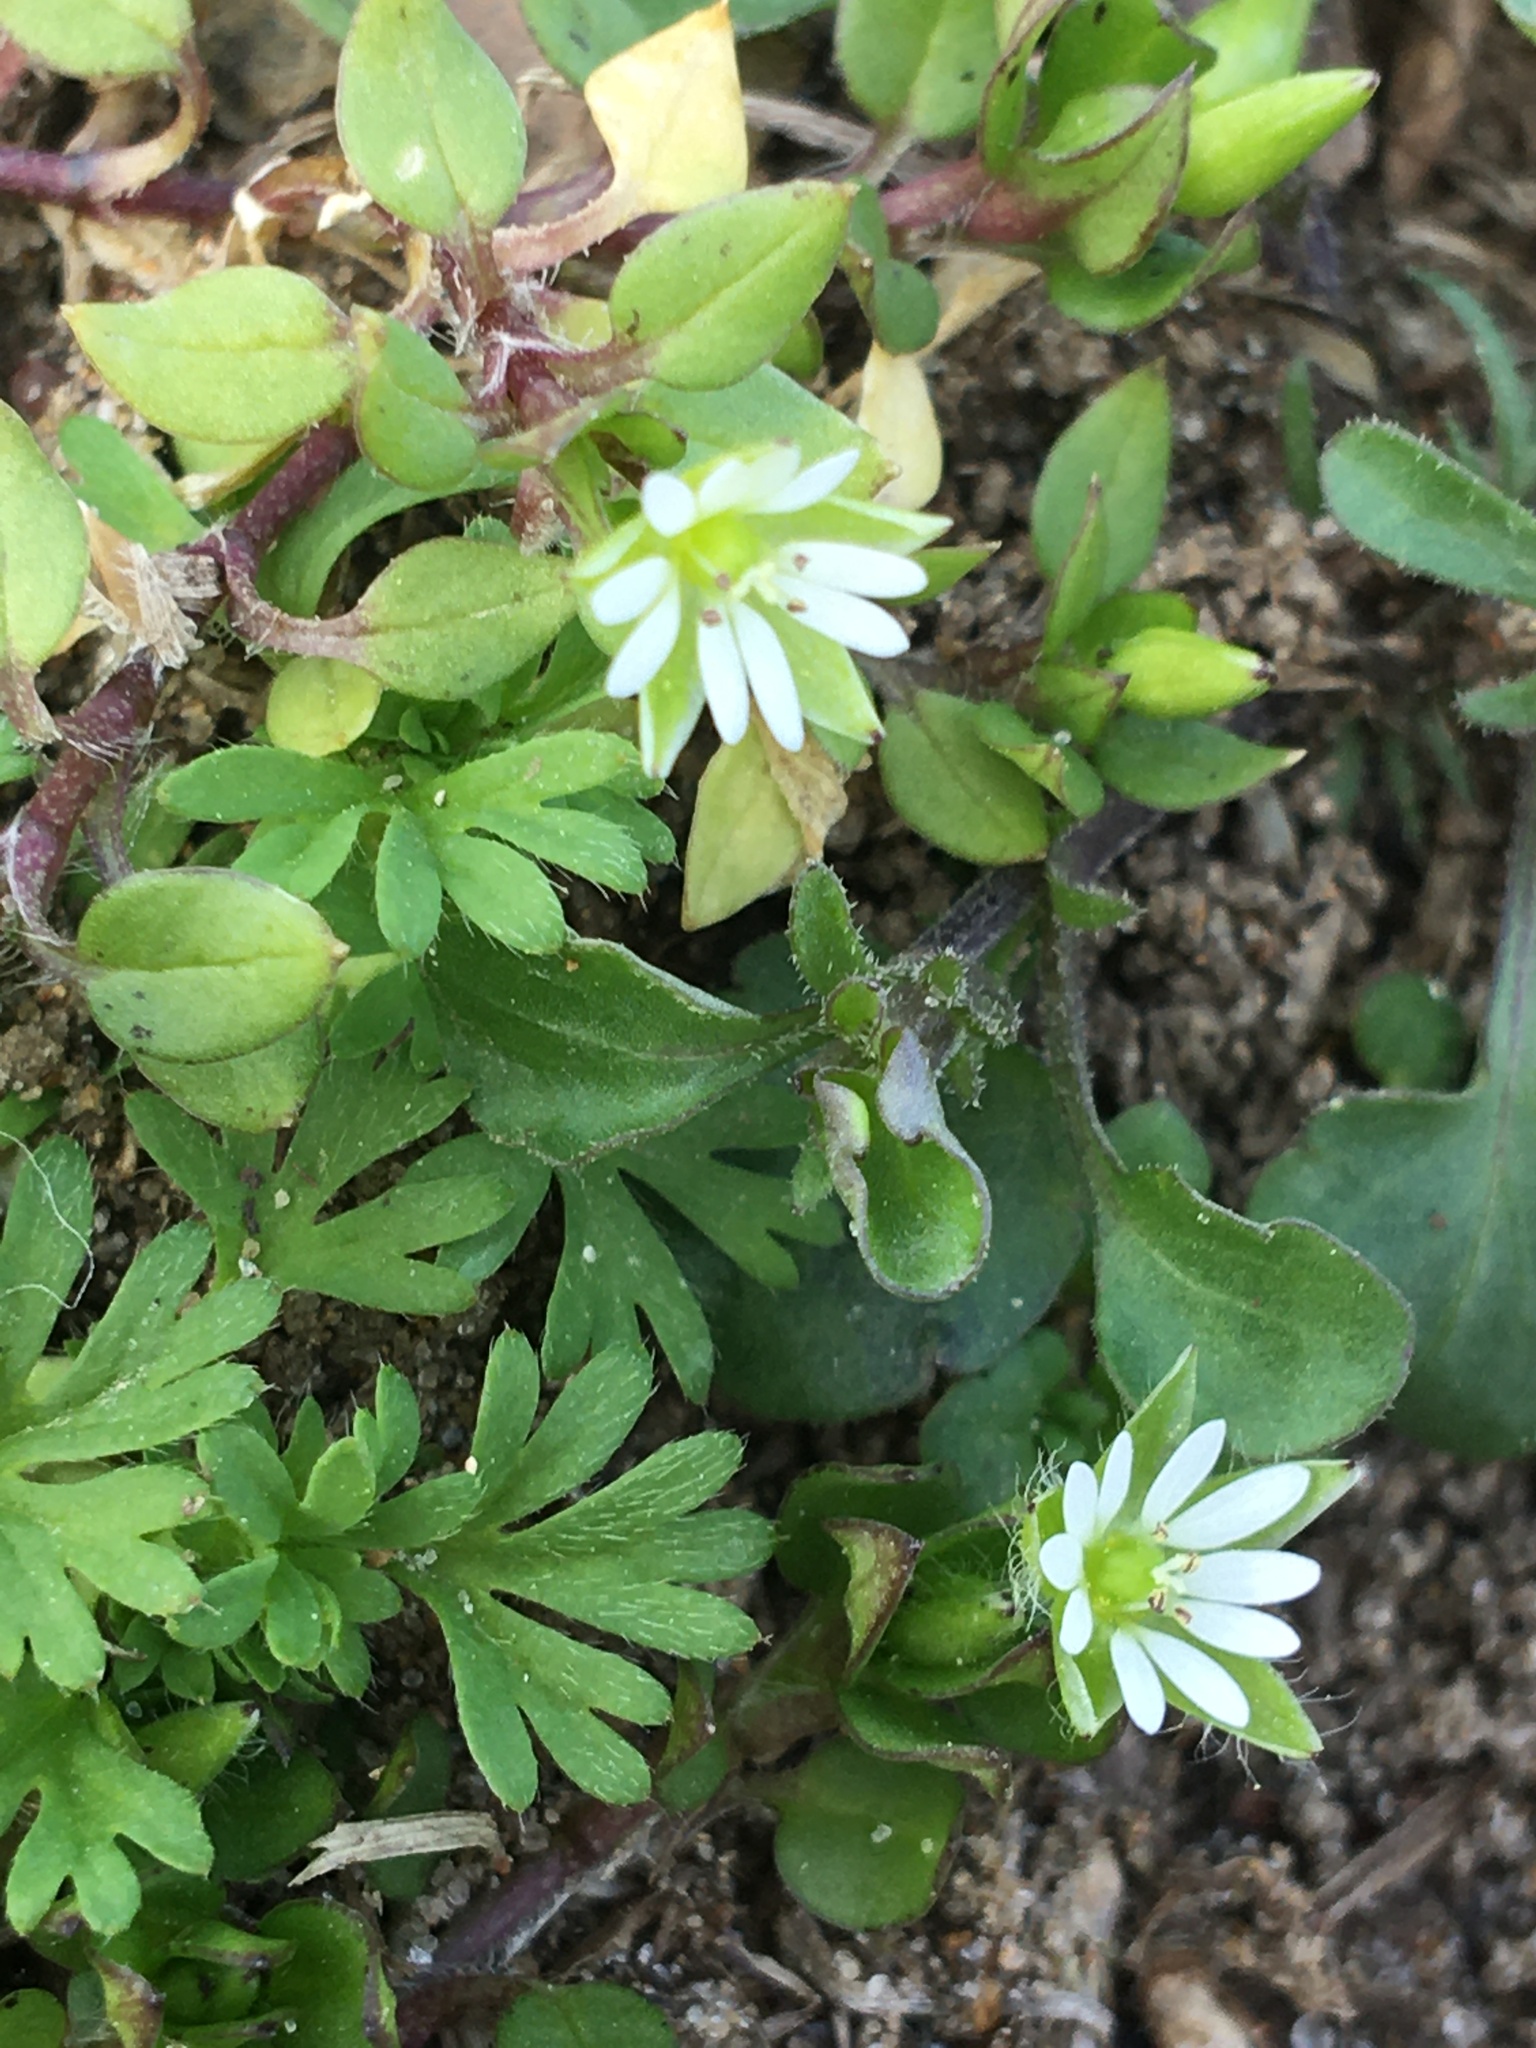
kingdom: Plantae
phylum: Tracheophyta
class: Magnoliopsida
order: Caryophyllales
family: Caryophyllaceae
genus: Stellaria
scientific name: Stellaria media
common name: Common chickweed
